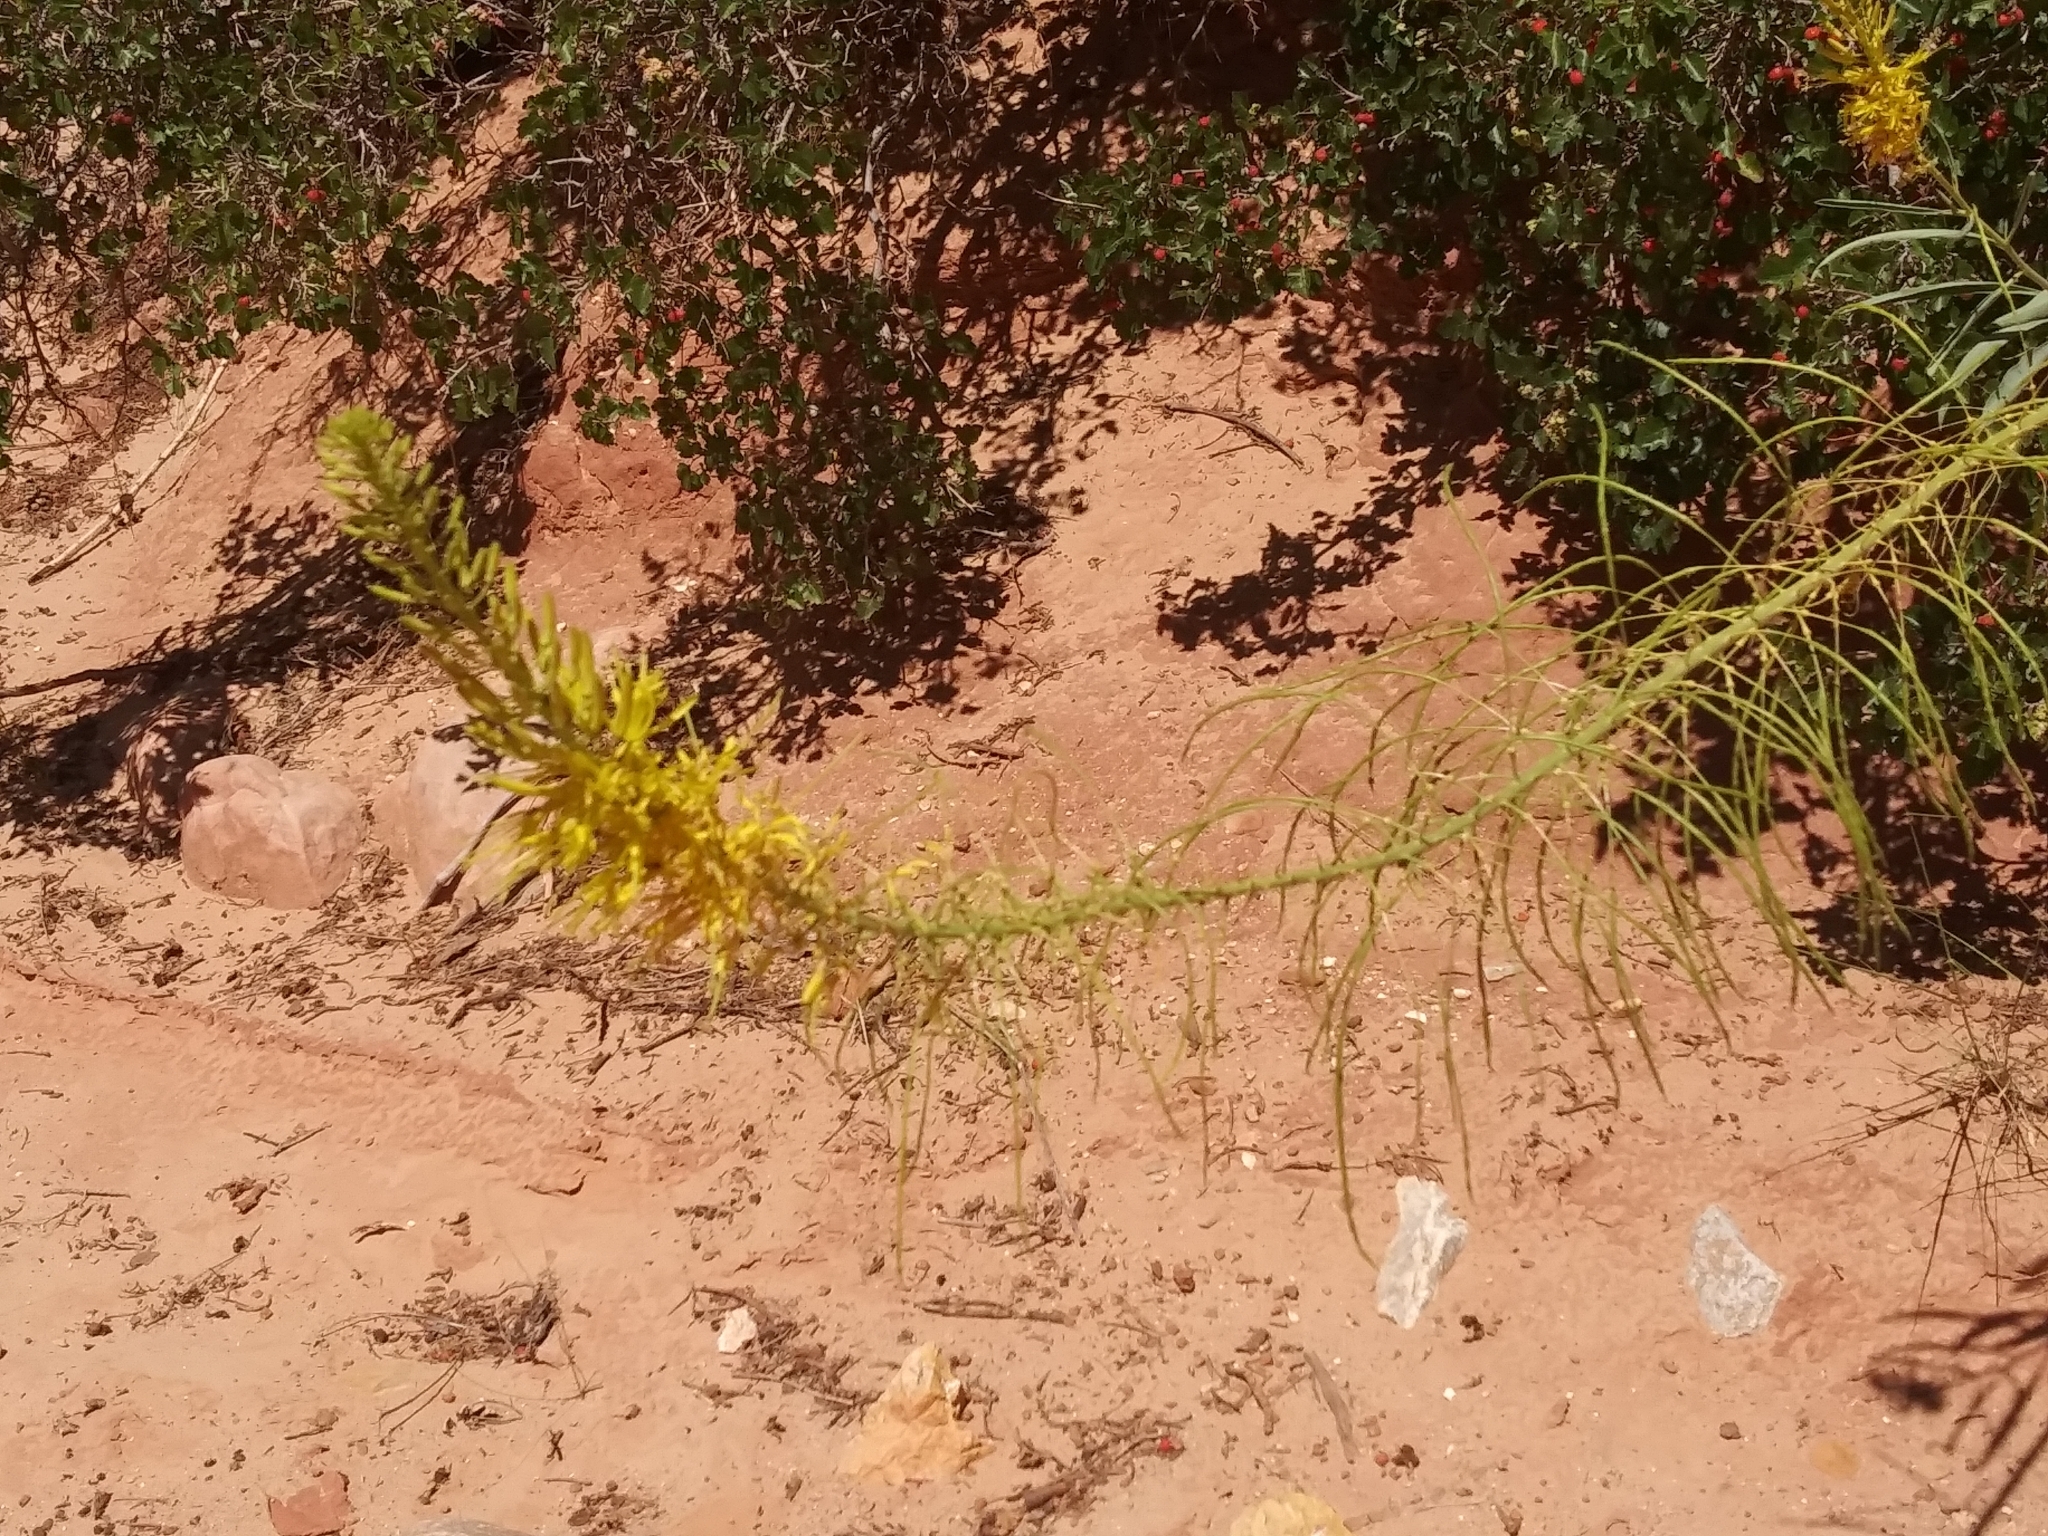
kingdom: Plantae
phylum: Tracheophyta
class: Magnoliopsida
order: Brassicales
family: Brassicaceae
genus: Stanleya
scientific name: Stanleya pinnata
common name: Prince's-plume
